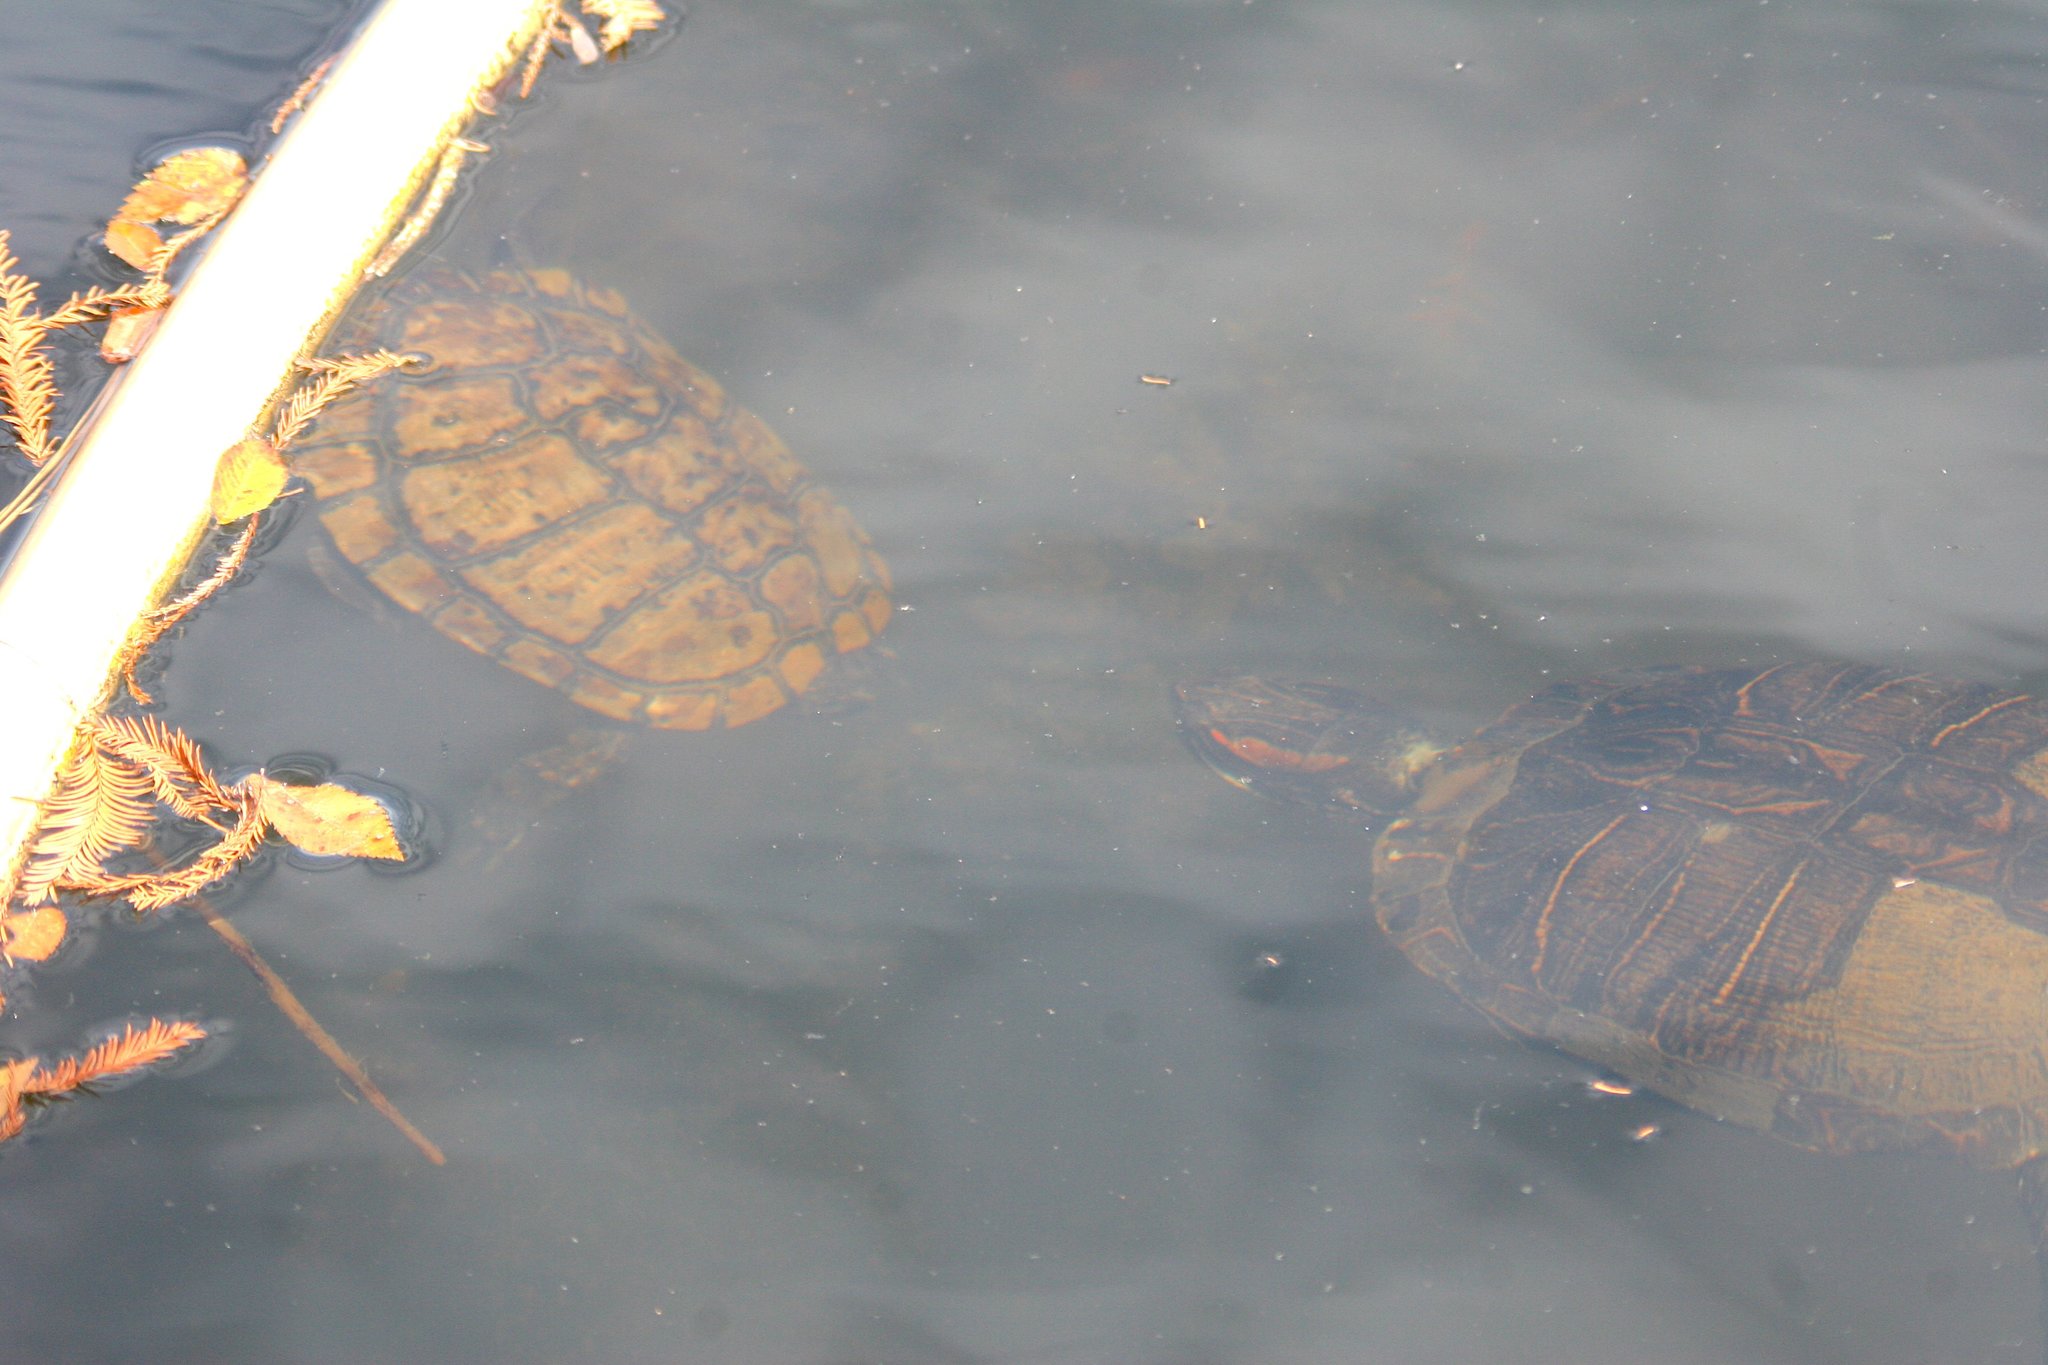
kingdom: Animalia
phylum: Chordata
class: Testudines
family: Emydidae
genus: Trachemys
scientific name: Trachemys scripta
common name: Slider
